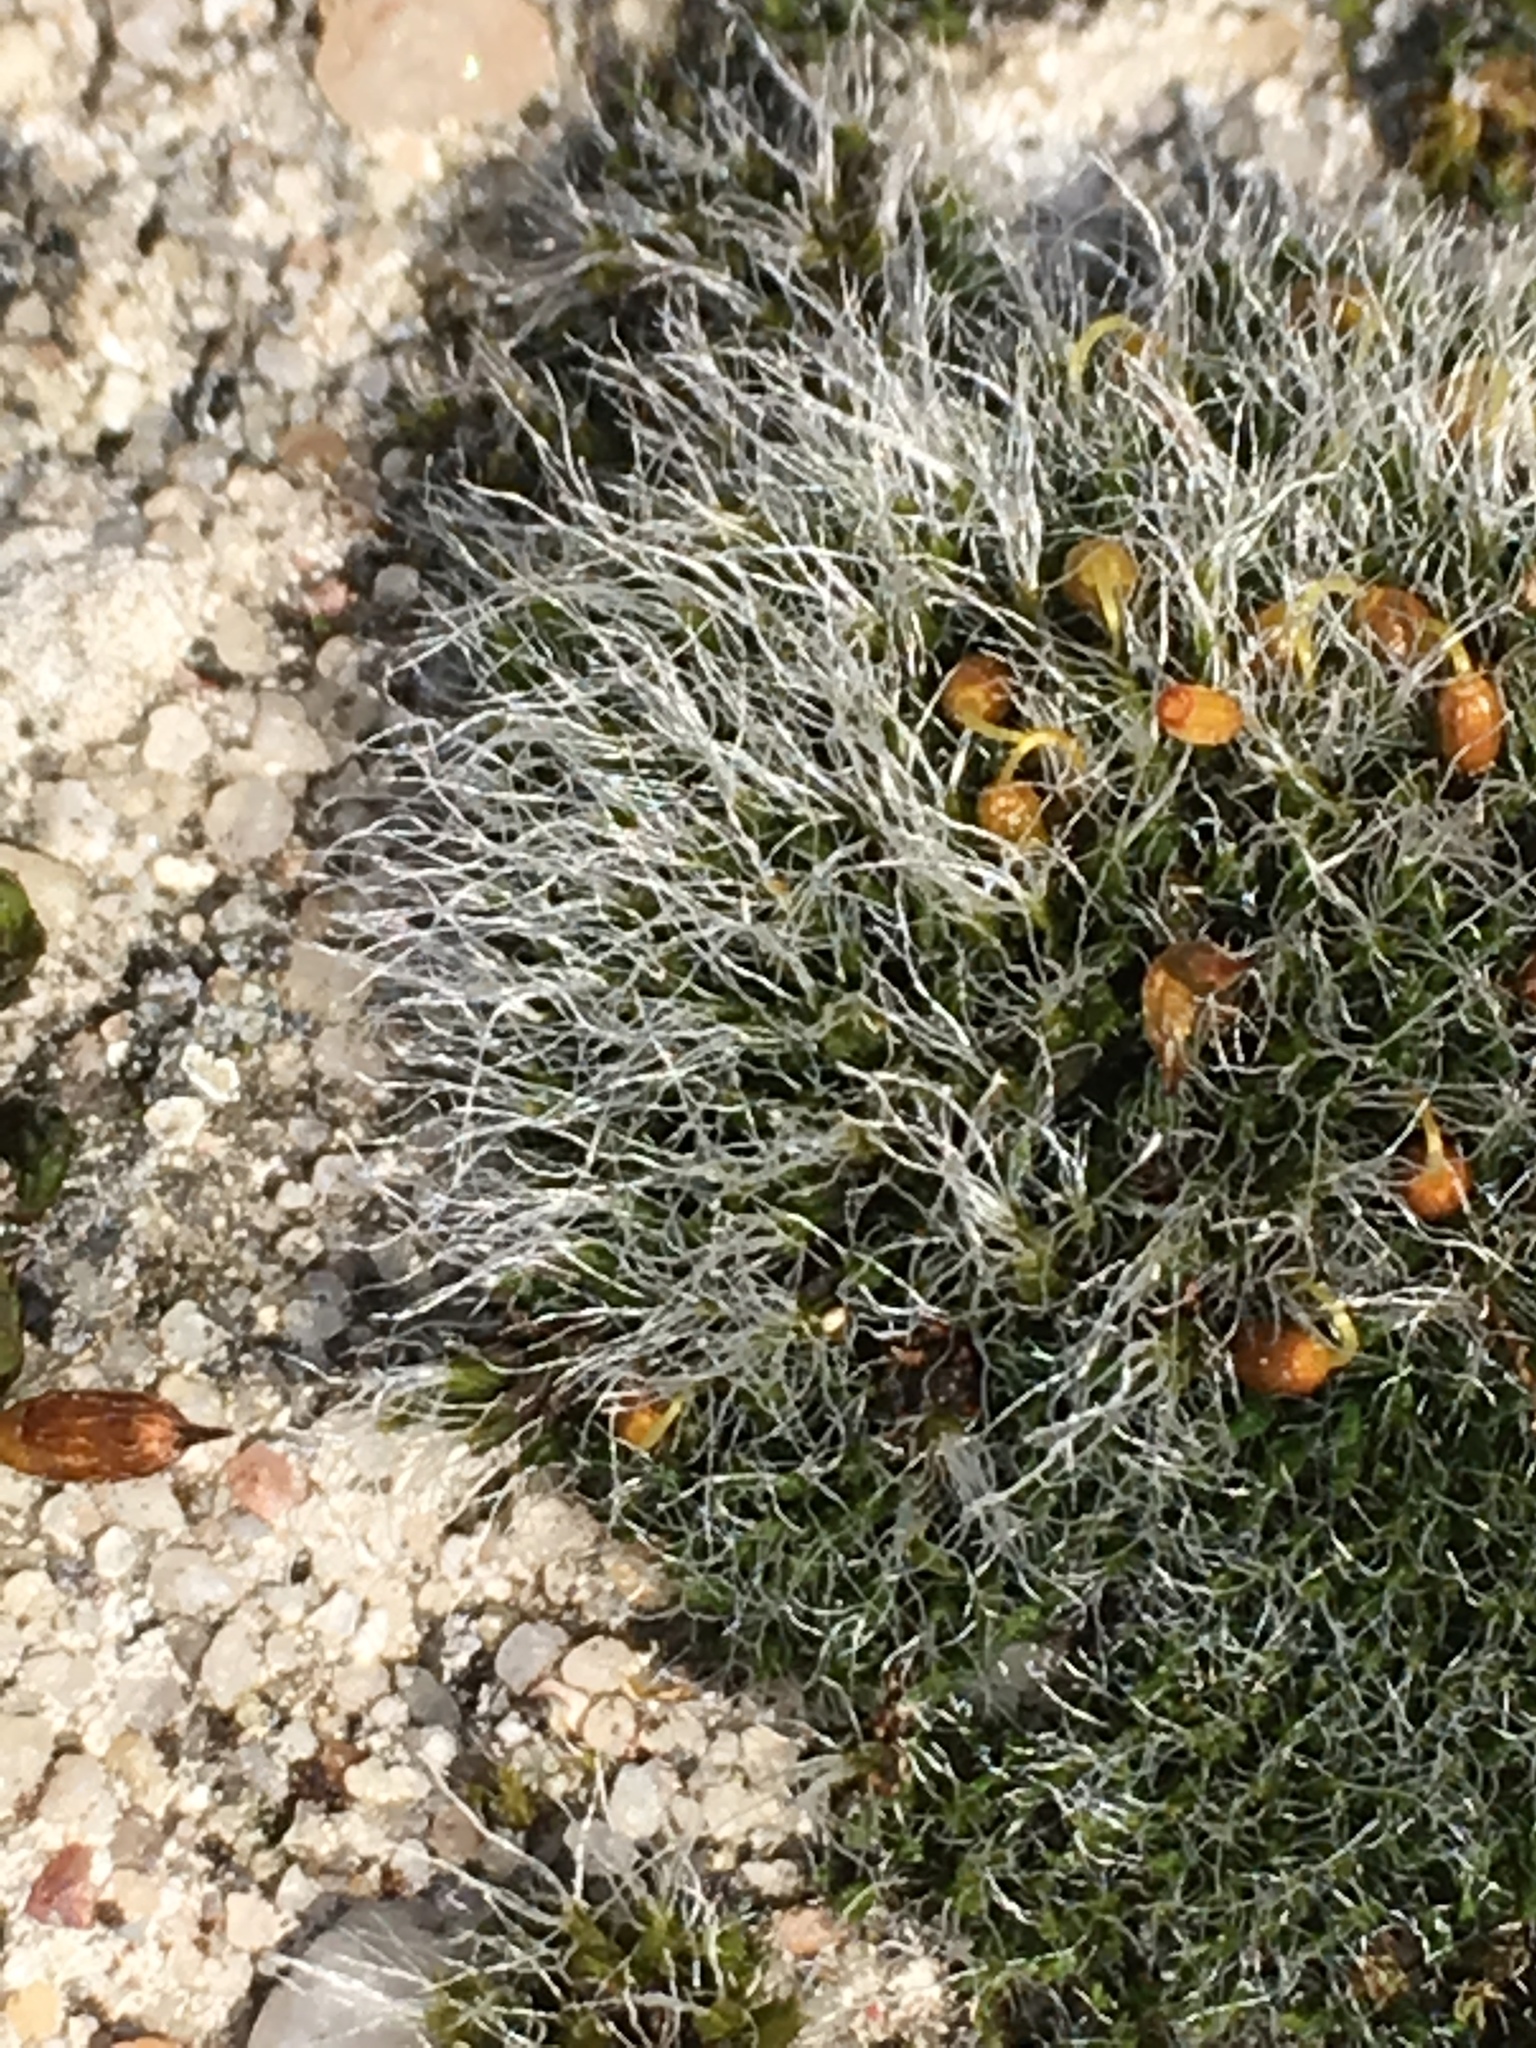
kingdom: Plantae
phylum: Bryophyta
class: Bryopsida
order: Grimmiales
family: Grimmiaceae
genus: Grimmia
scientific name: Grimmia pulvinata
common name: Grey-cushioned grimmia
